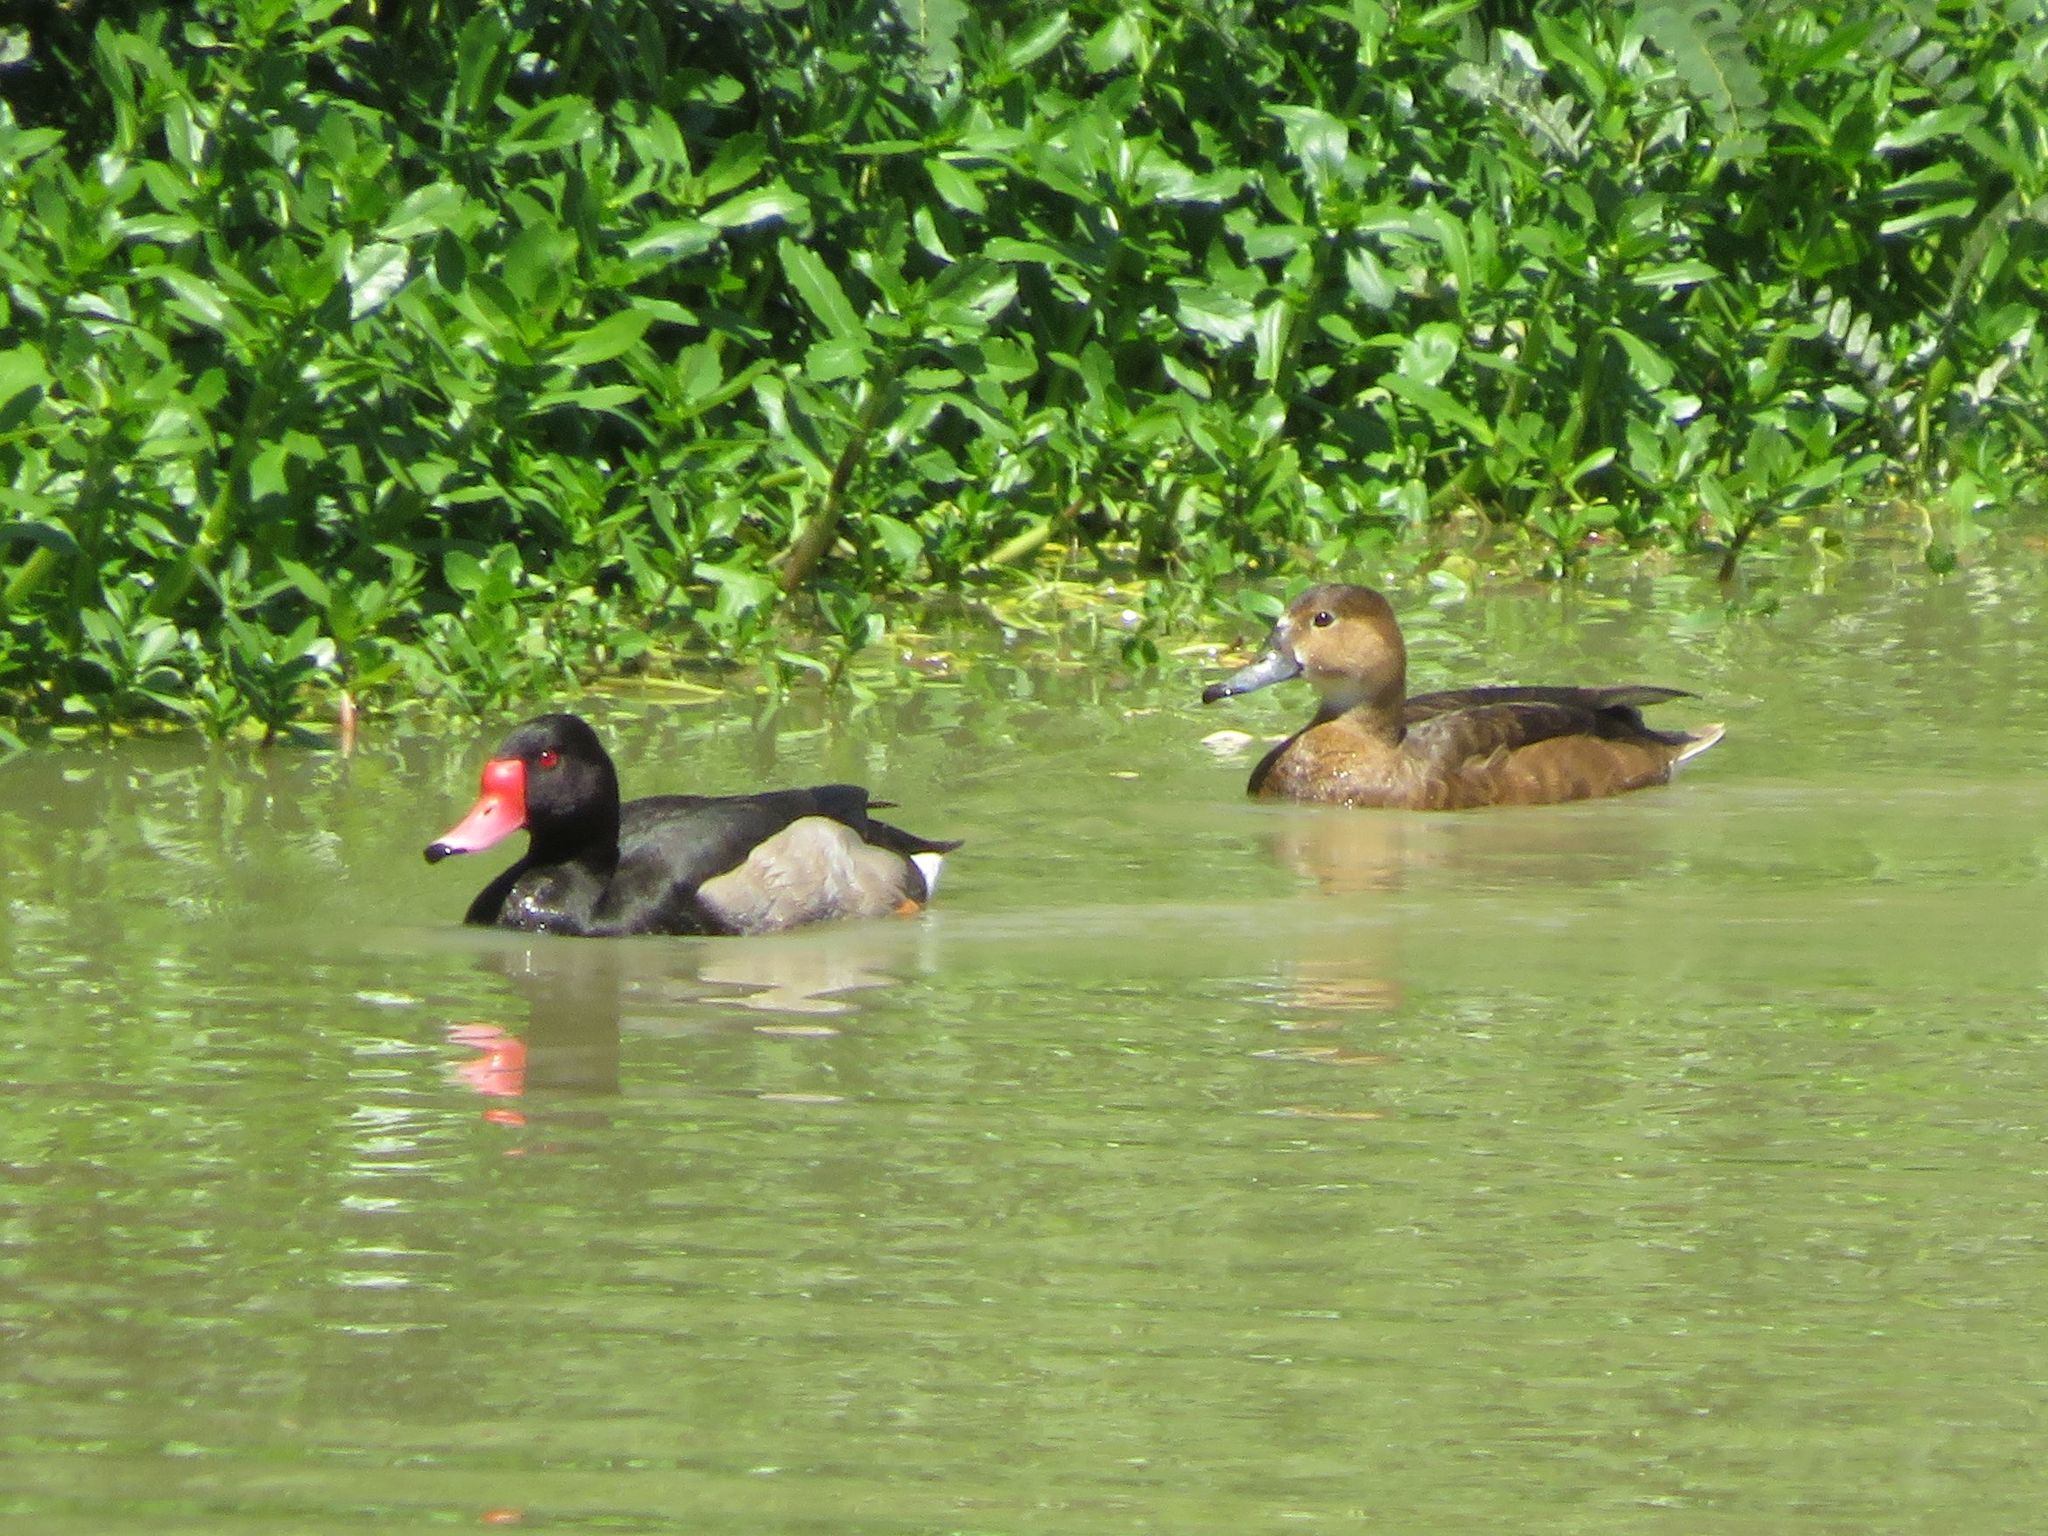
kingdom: Animalia
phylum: Chordata
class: Aves
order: Anseriformes
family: Anatidae
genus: Netta
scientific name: Netta peposaca
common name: Rosy-billed pochard
